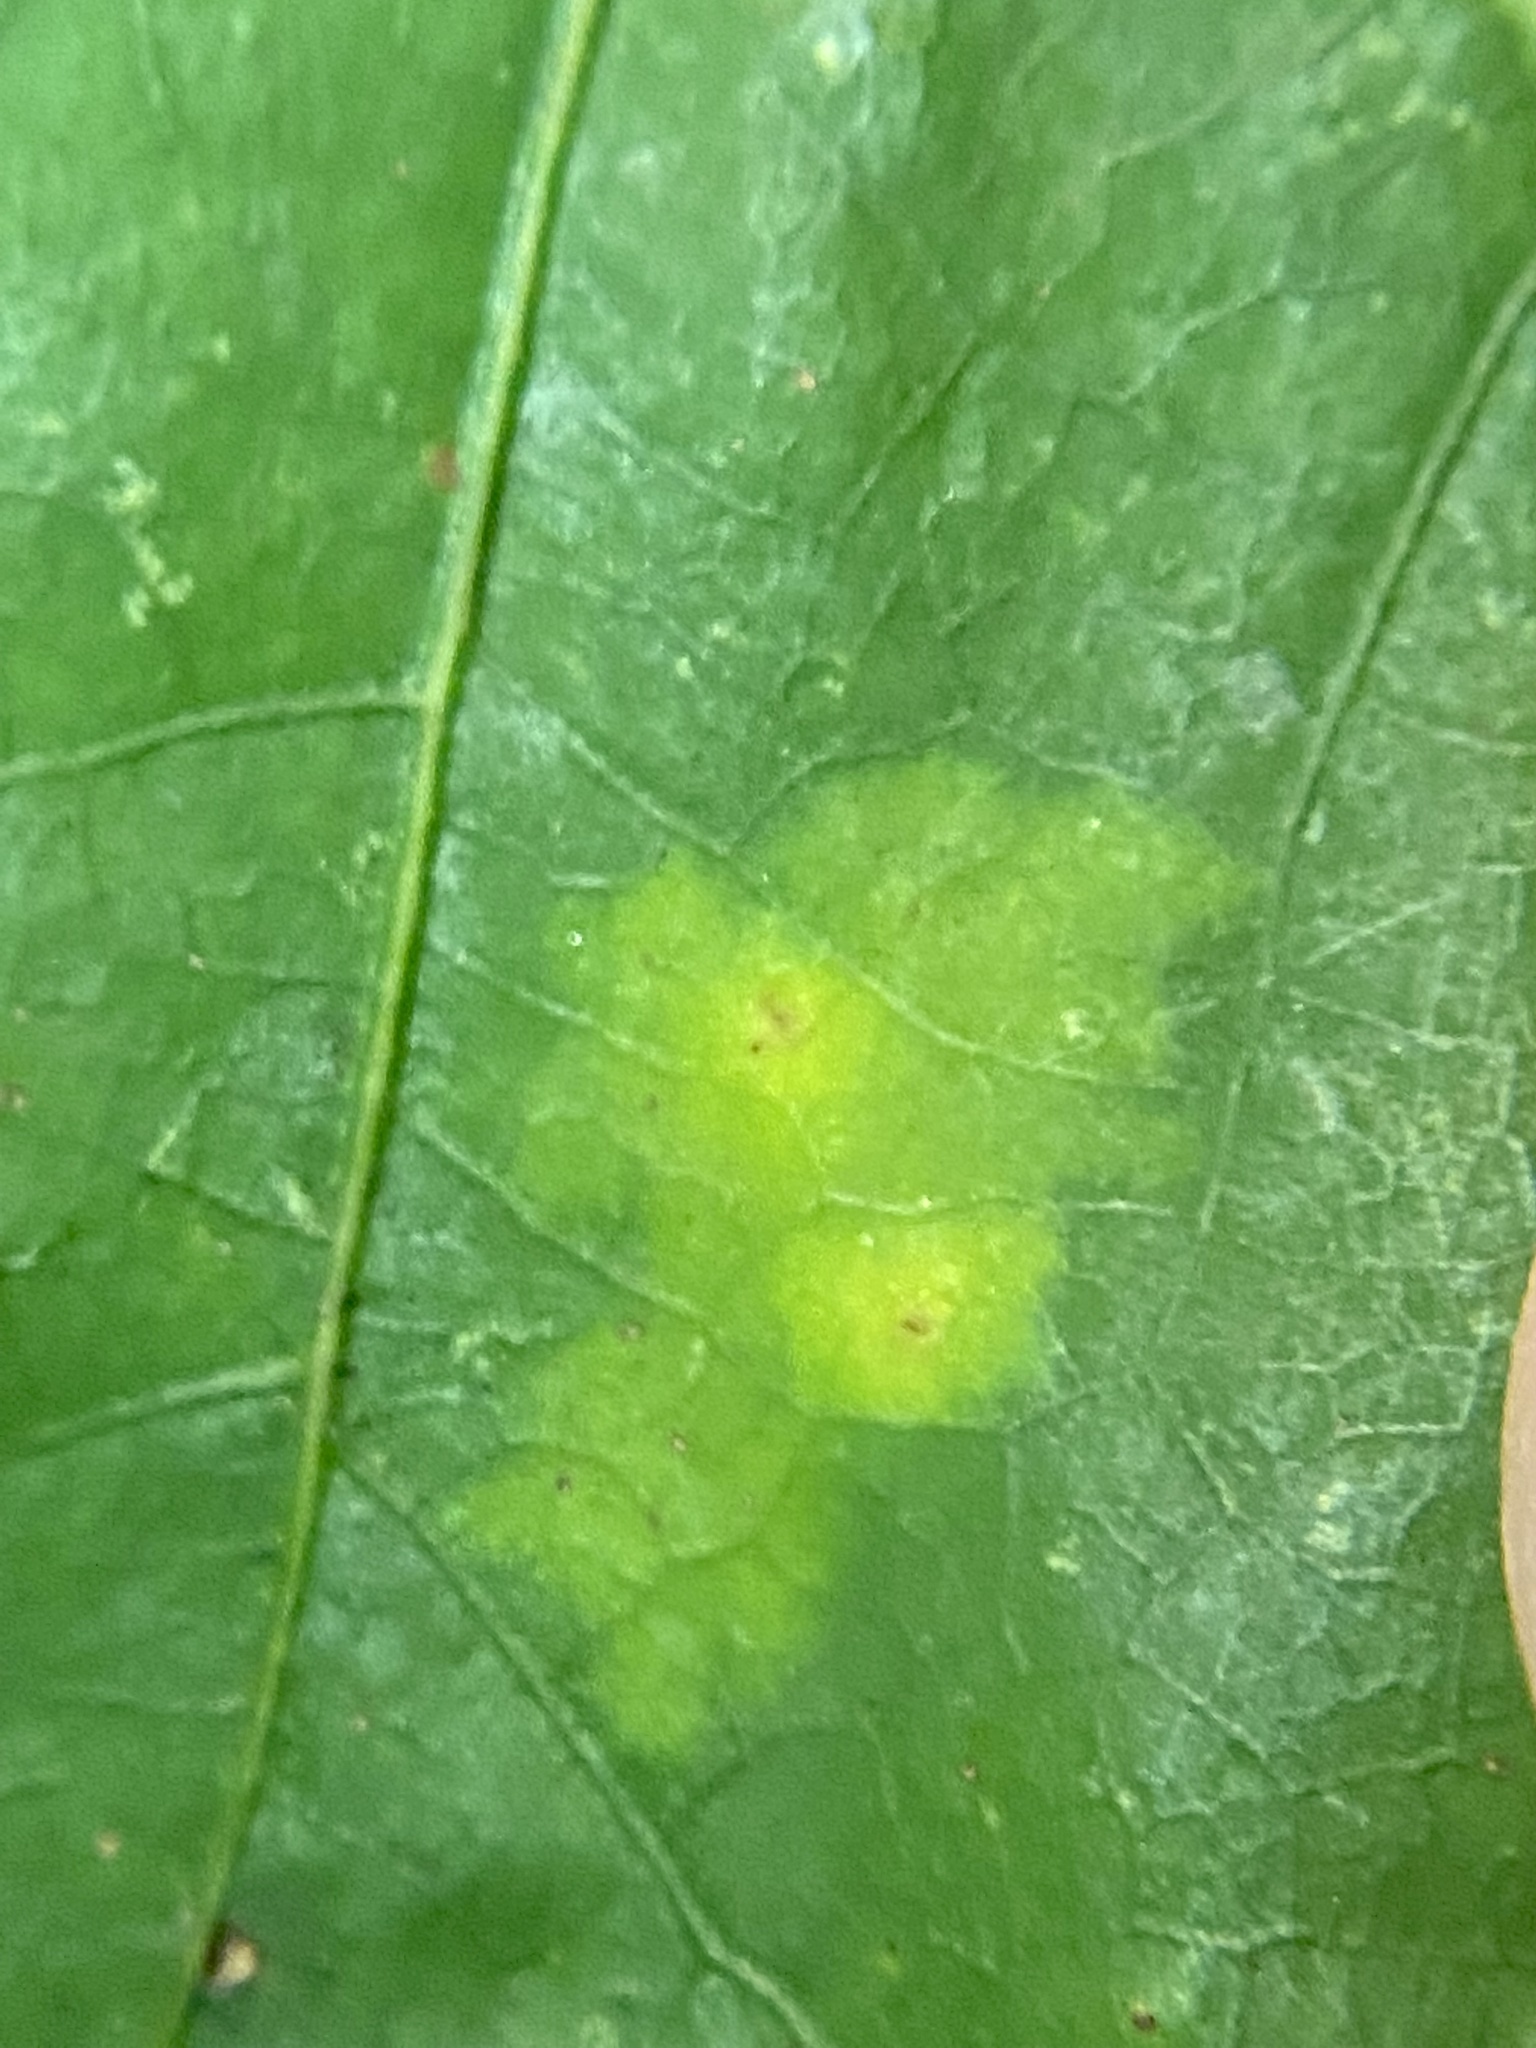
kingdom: Animalia
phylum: Arthropoda
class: Insecta
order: Hymenoptera
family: Cynipidae
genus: Phylloteras
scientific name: Phylloteras poculum
